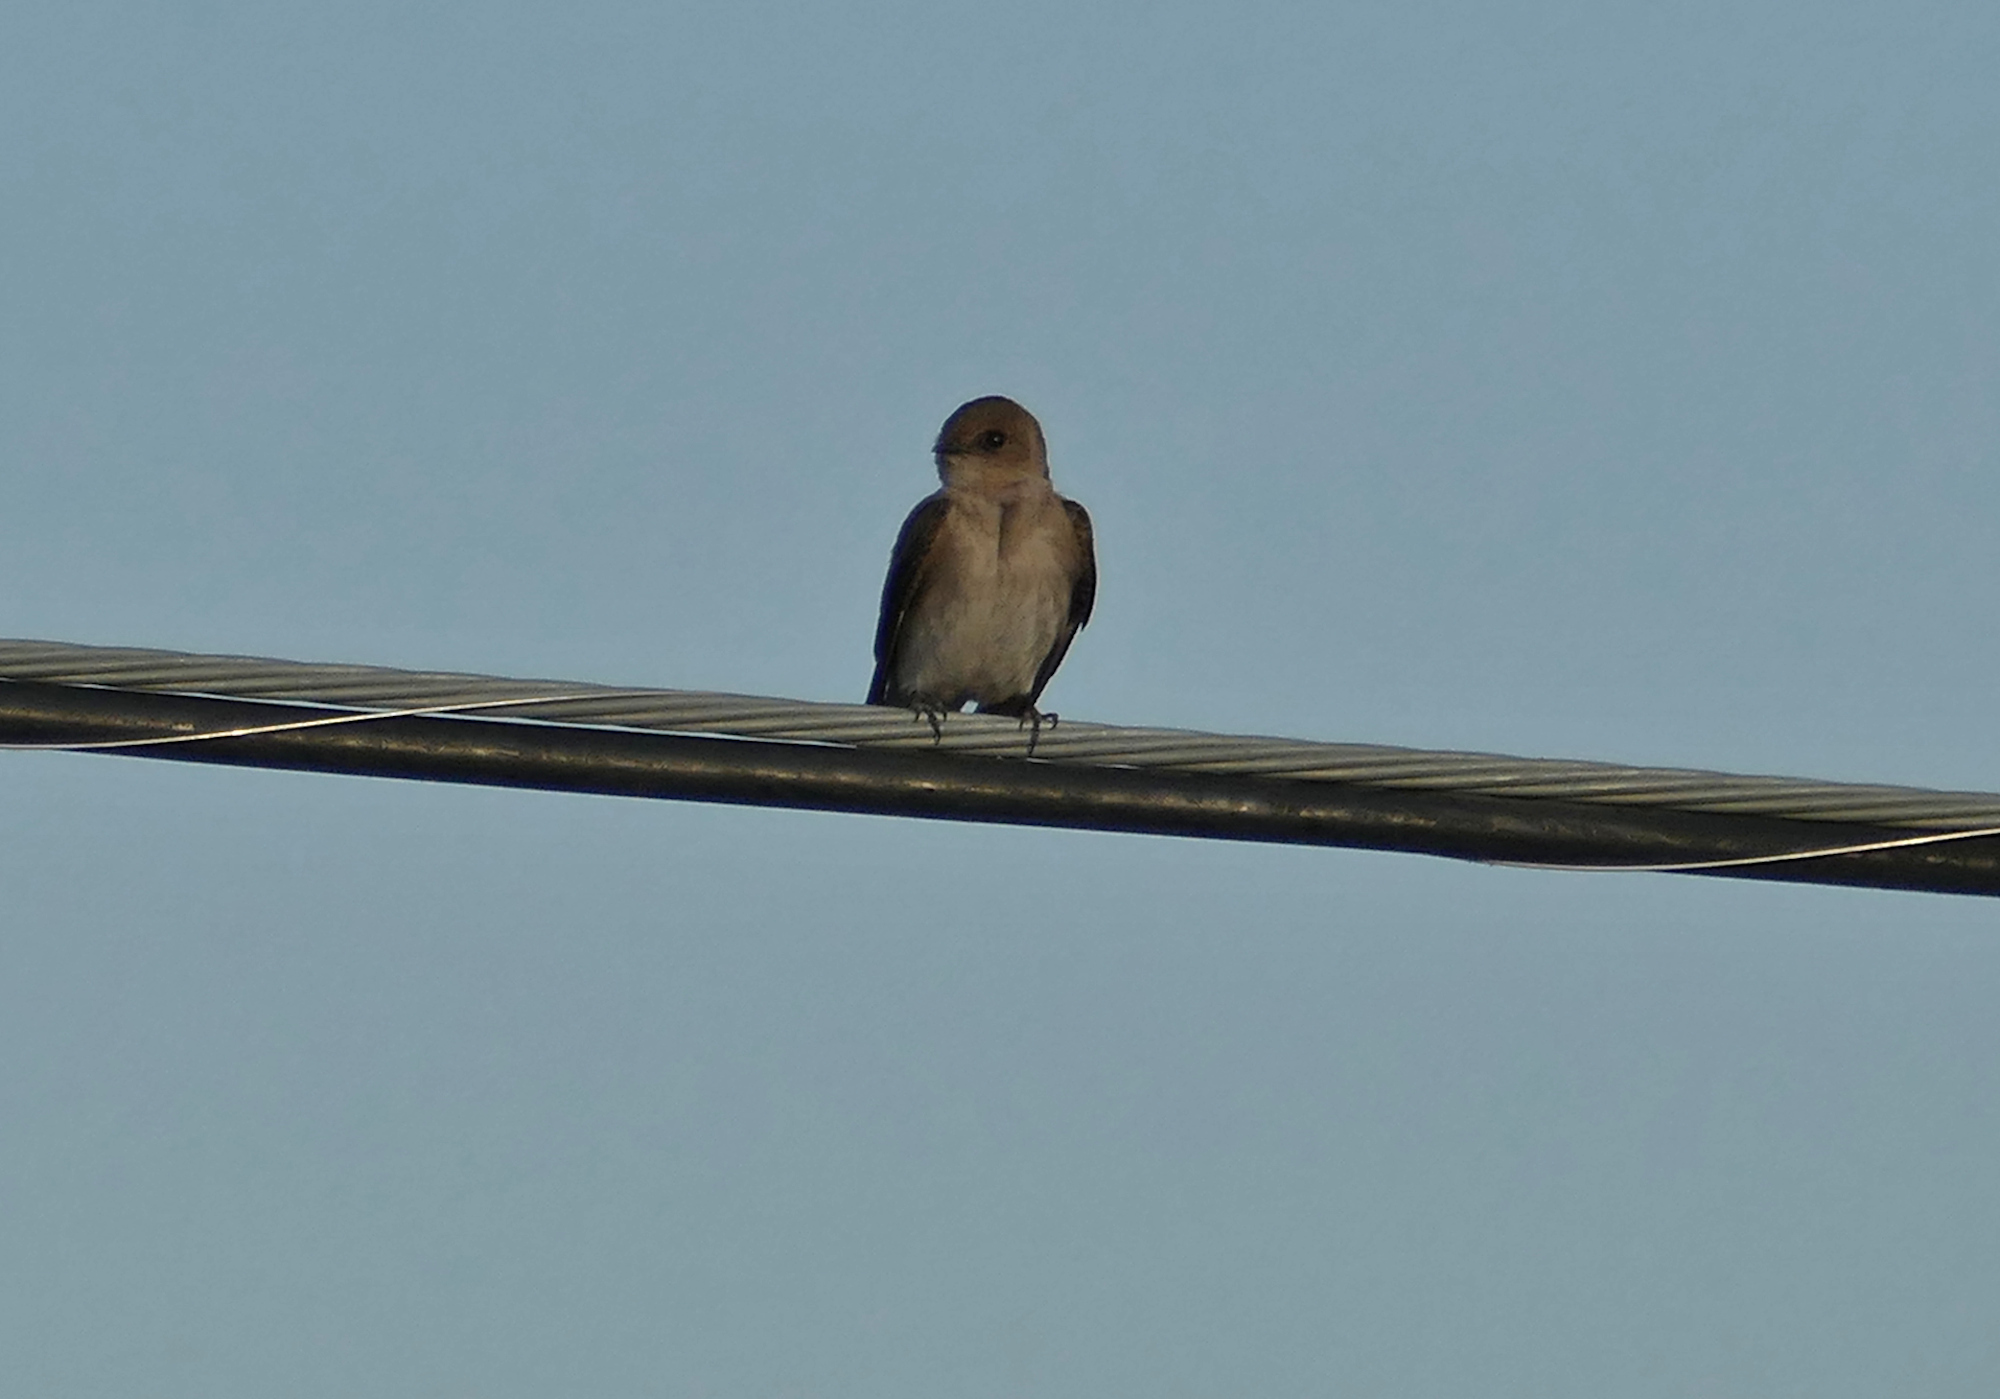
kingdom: Animalia
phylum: Chordata
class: Aves
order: Passeriformes
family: Hirundinidae
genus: Stelgidopteryx
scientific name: Stelgidopteryx serripennis
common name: Northern rough-winged swallow
